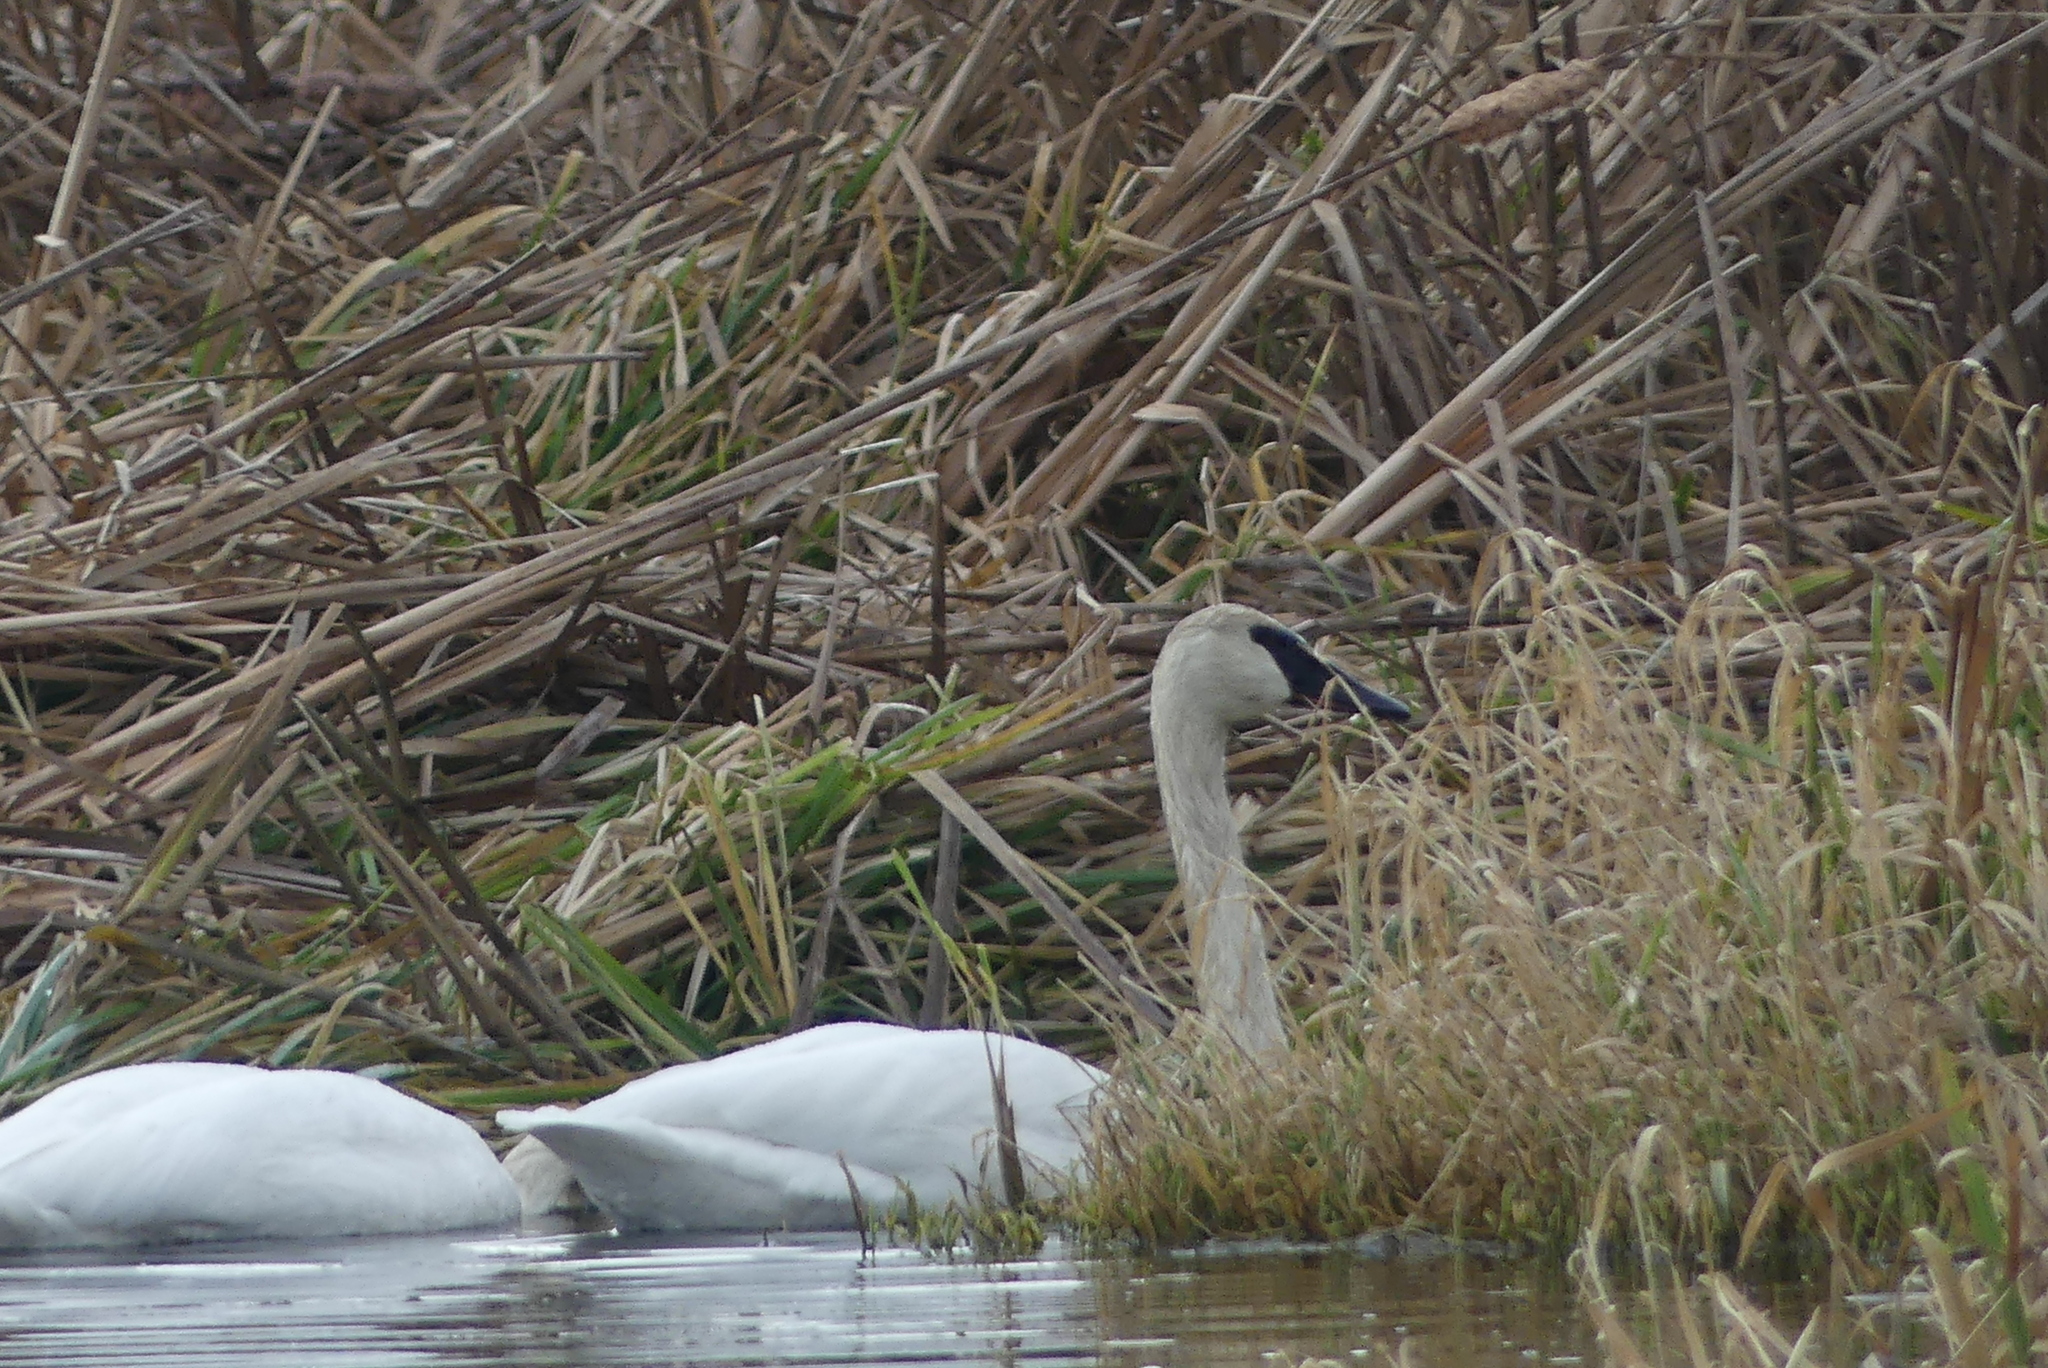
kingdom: Animalia
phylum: Chordata
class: Aves
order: Anseriformes
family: Anatidae
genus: Cygnus
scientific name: Cygnus buccinator
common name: Trumpeter swan
